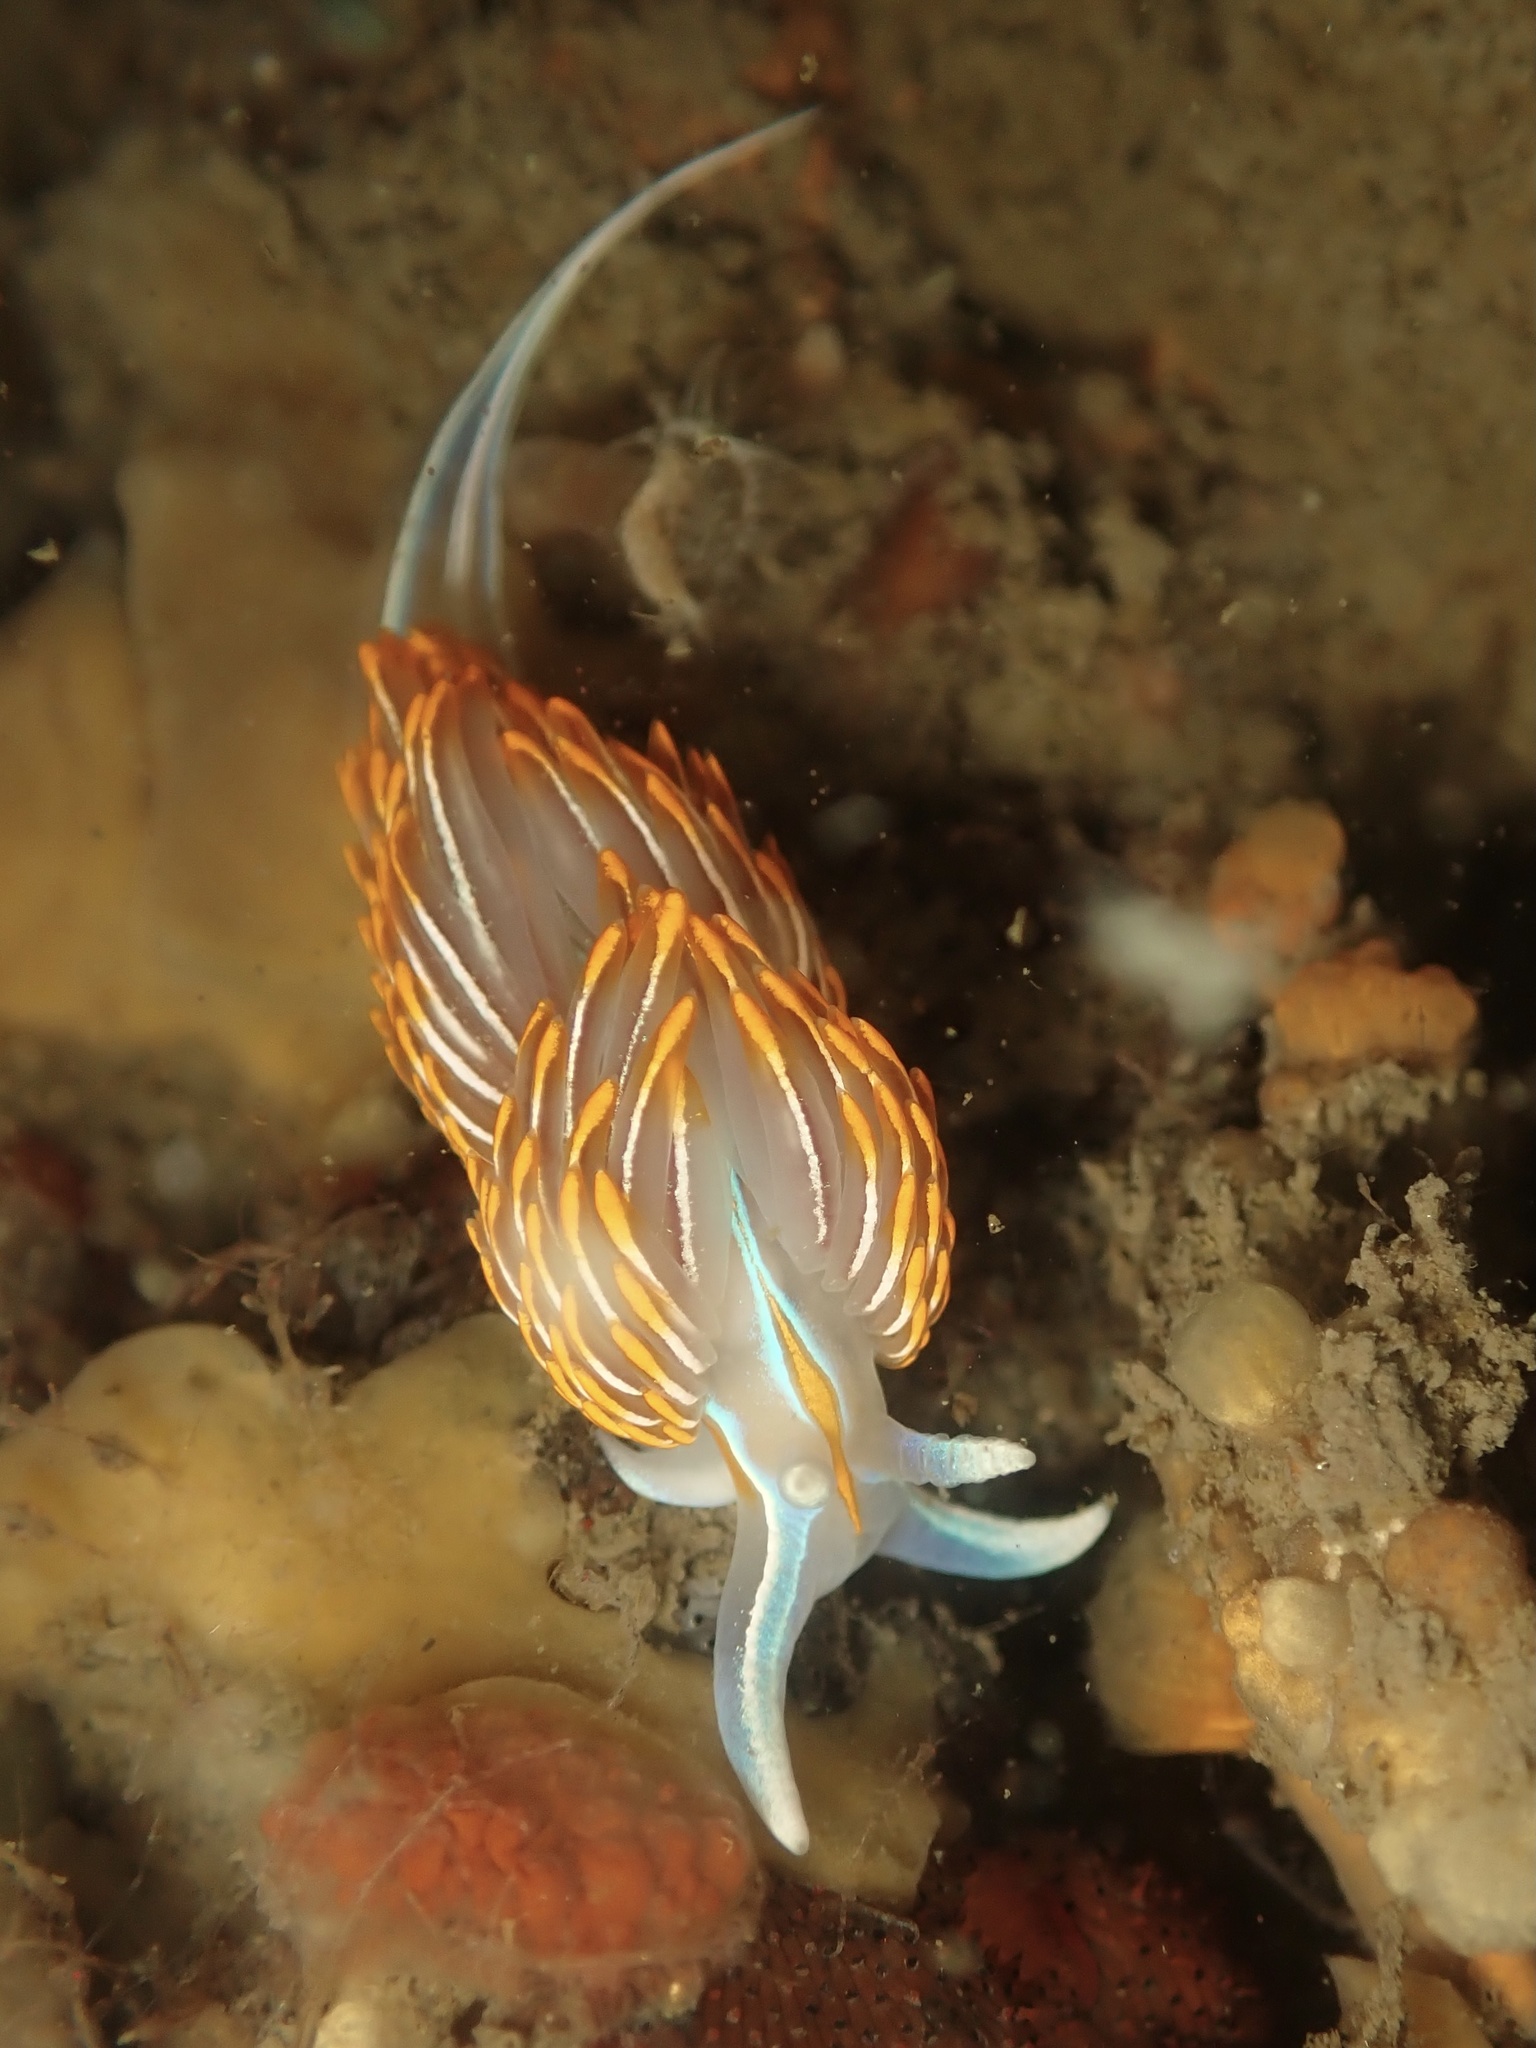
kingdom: Animalia
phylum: Mollusca
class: Gastropoda
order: Nudibranchia
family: Myrrhinidae
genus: Hermissenda
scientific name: Hermissenda crassicornis
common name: Hermissenda
